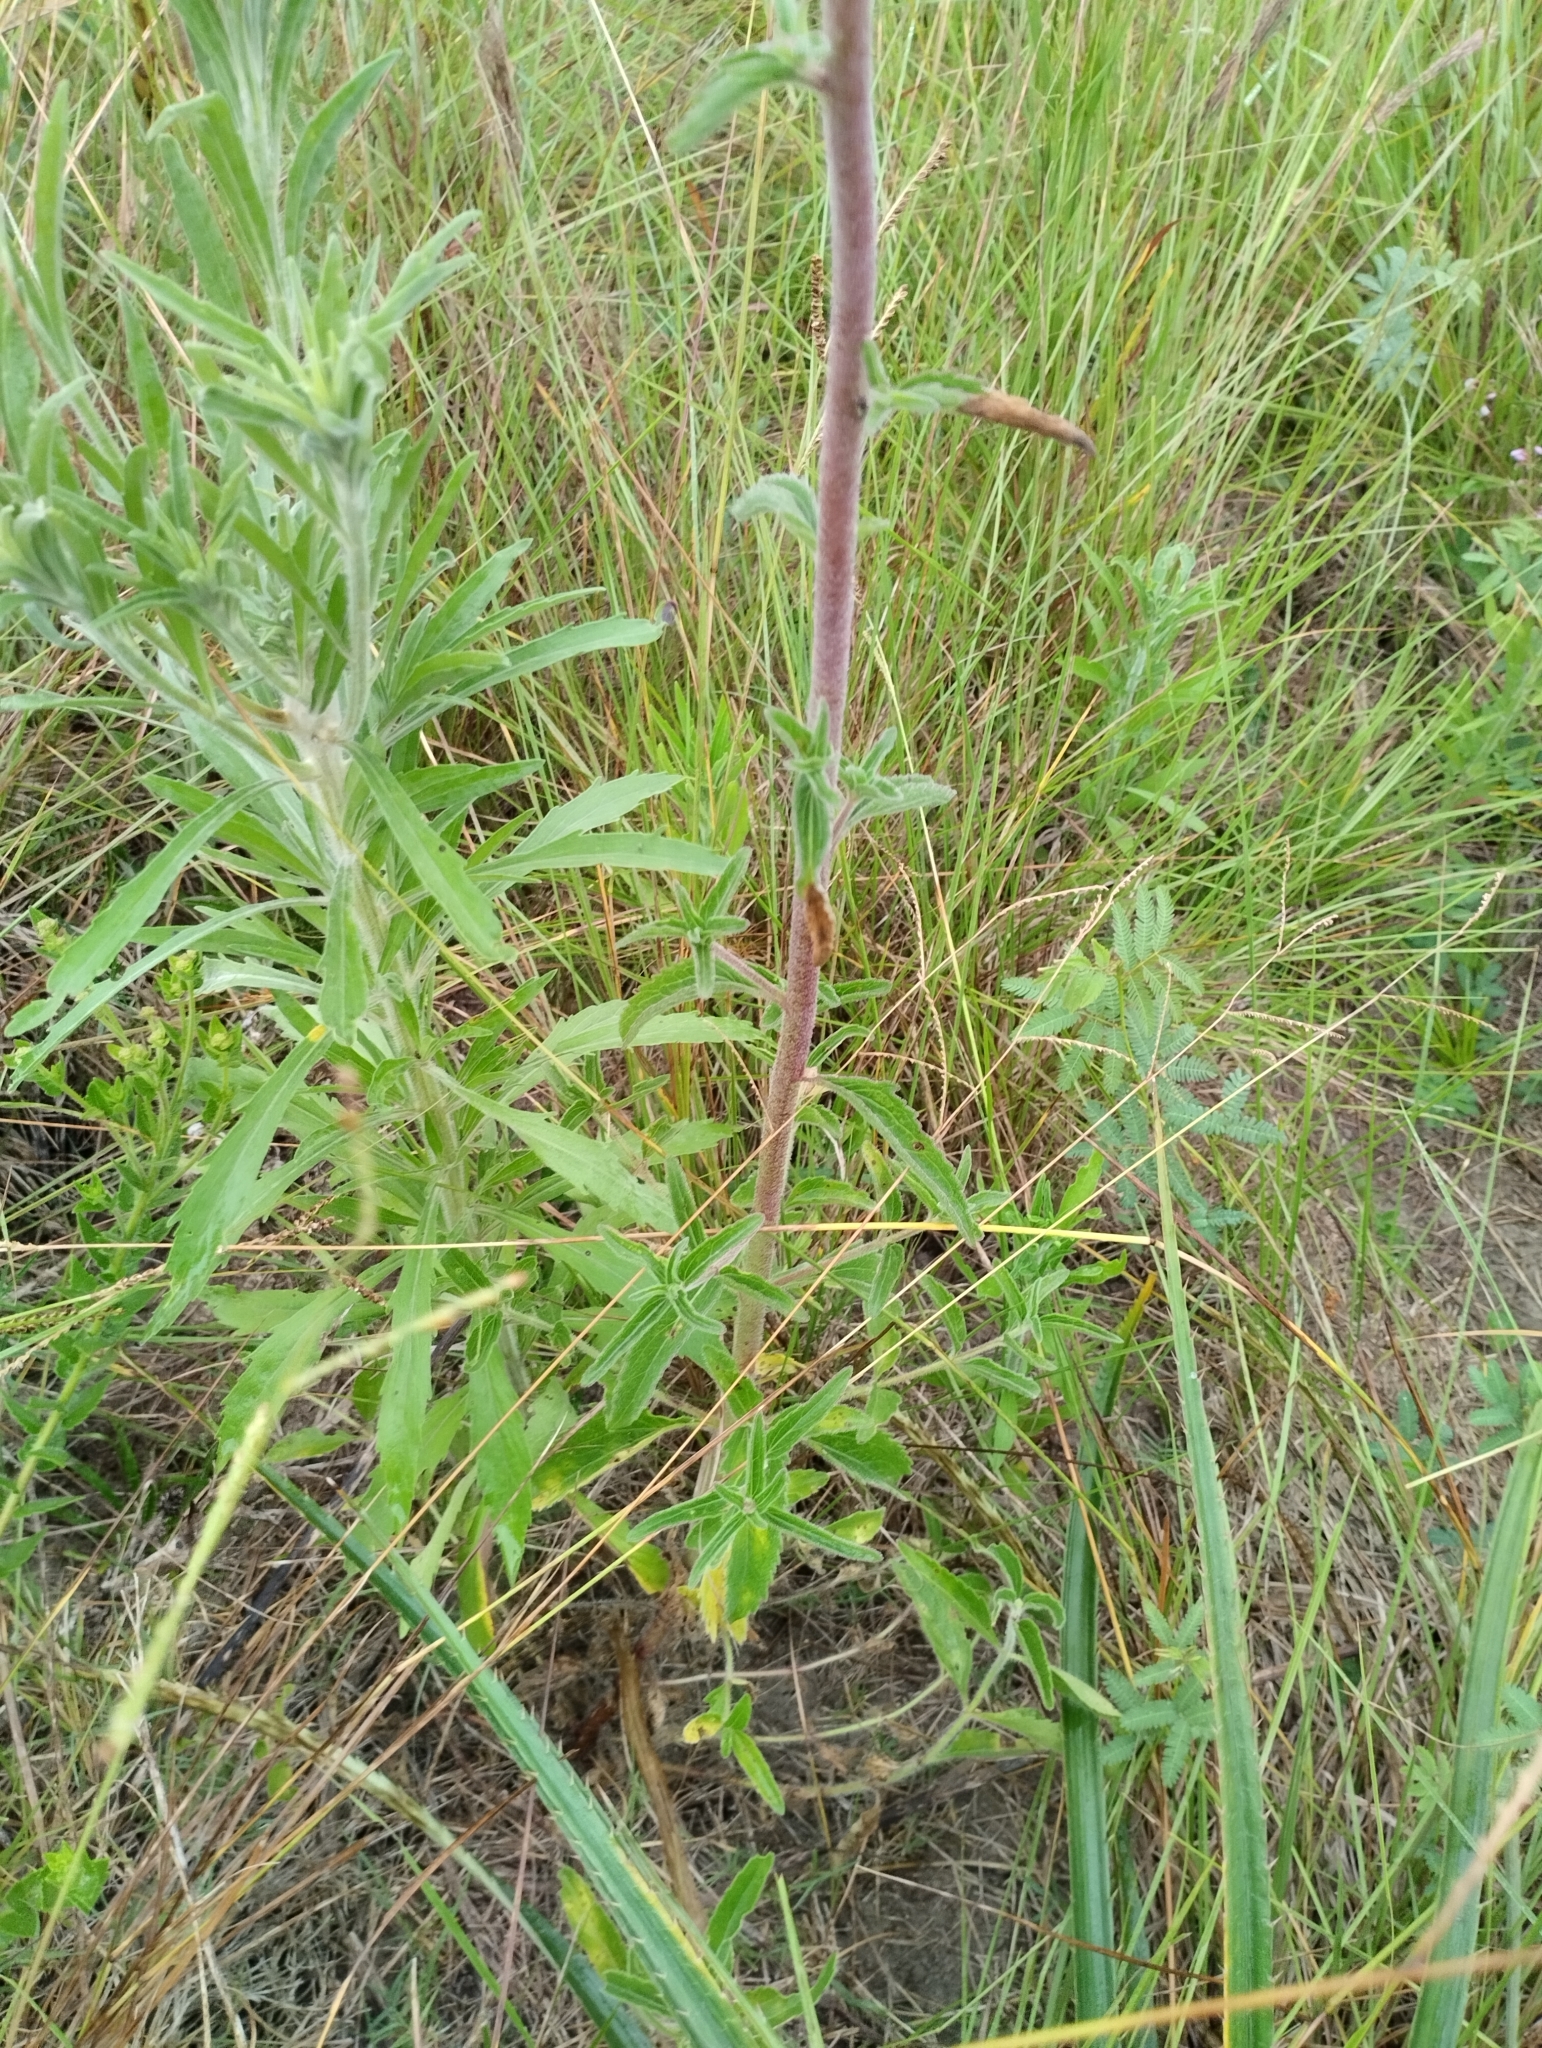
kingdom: Plantae
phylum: Tracheophyta
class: Magnoliopsida
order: Asterales
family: Asteraceae
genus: Campuloclinium
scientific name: Campuloclinium macrocephalum
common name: Pompomweed
